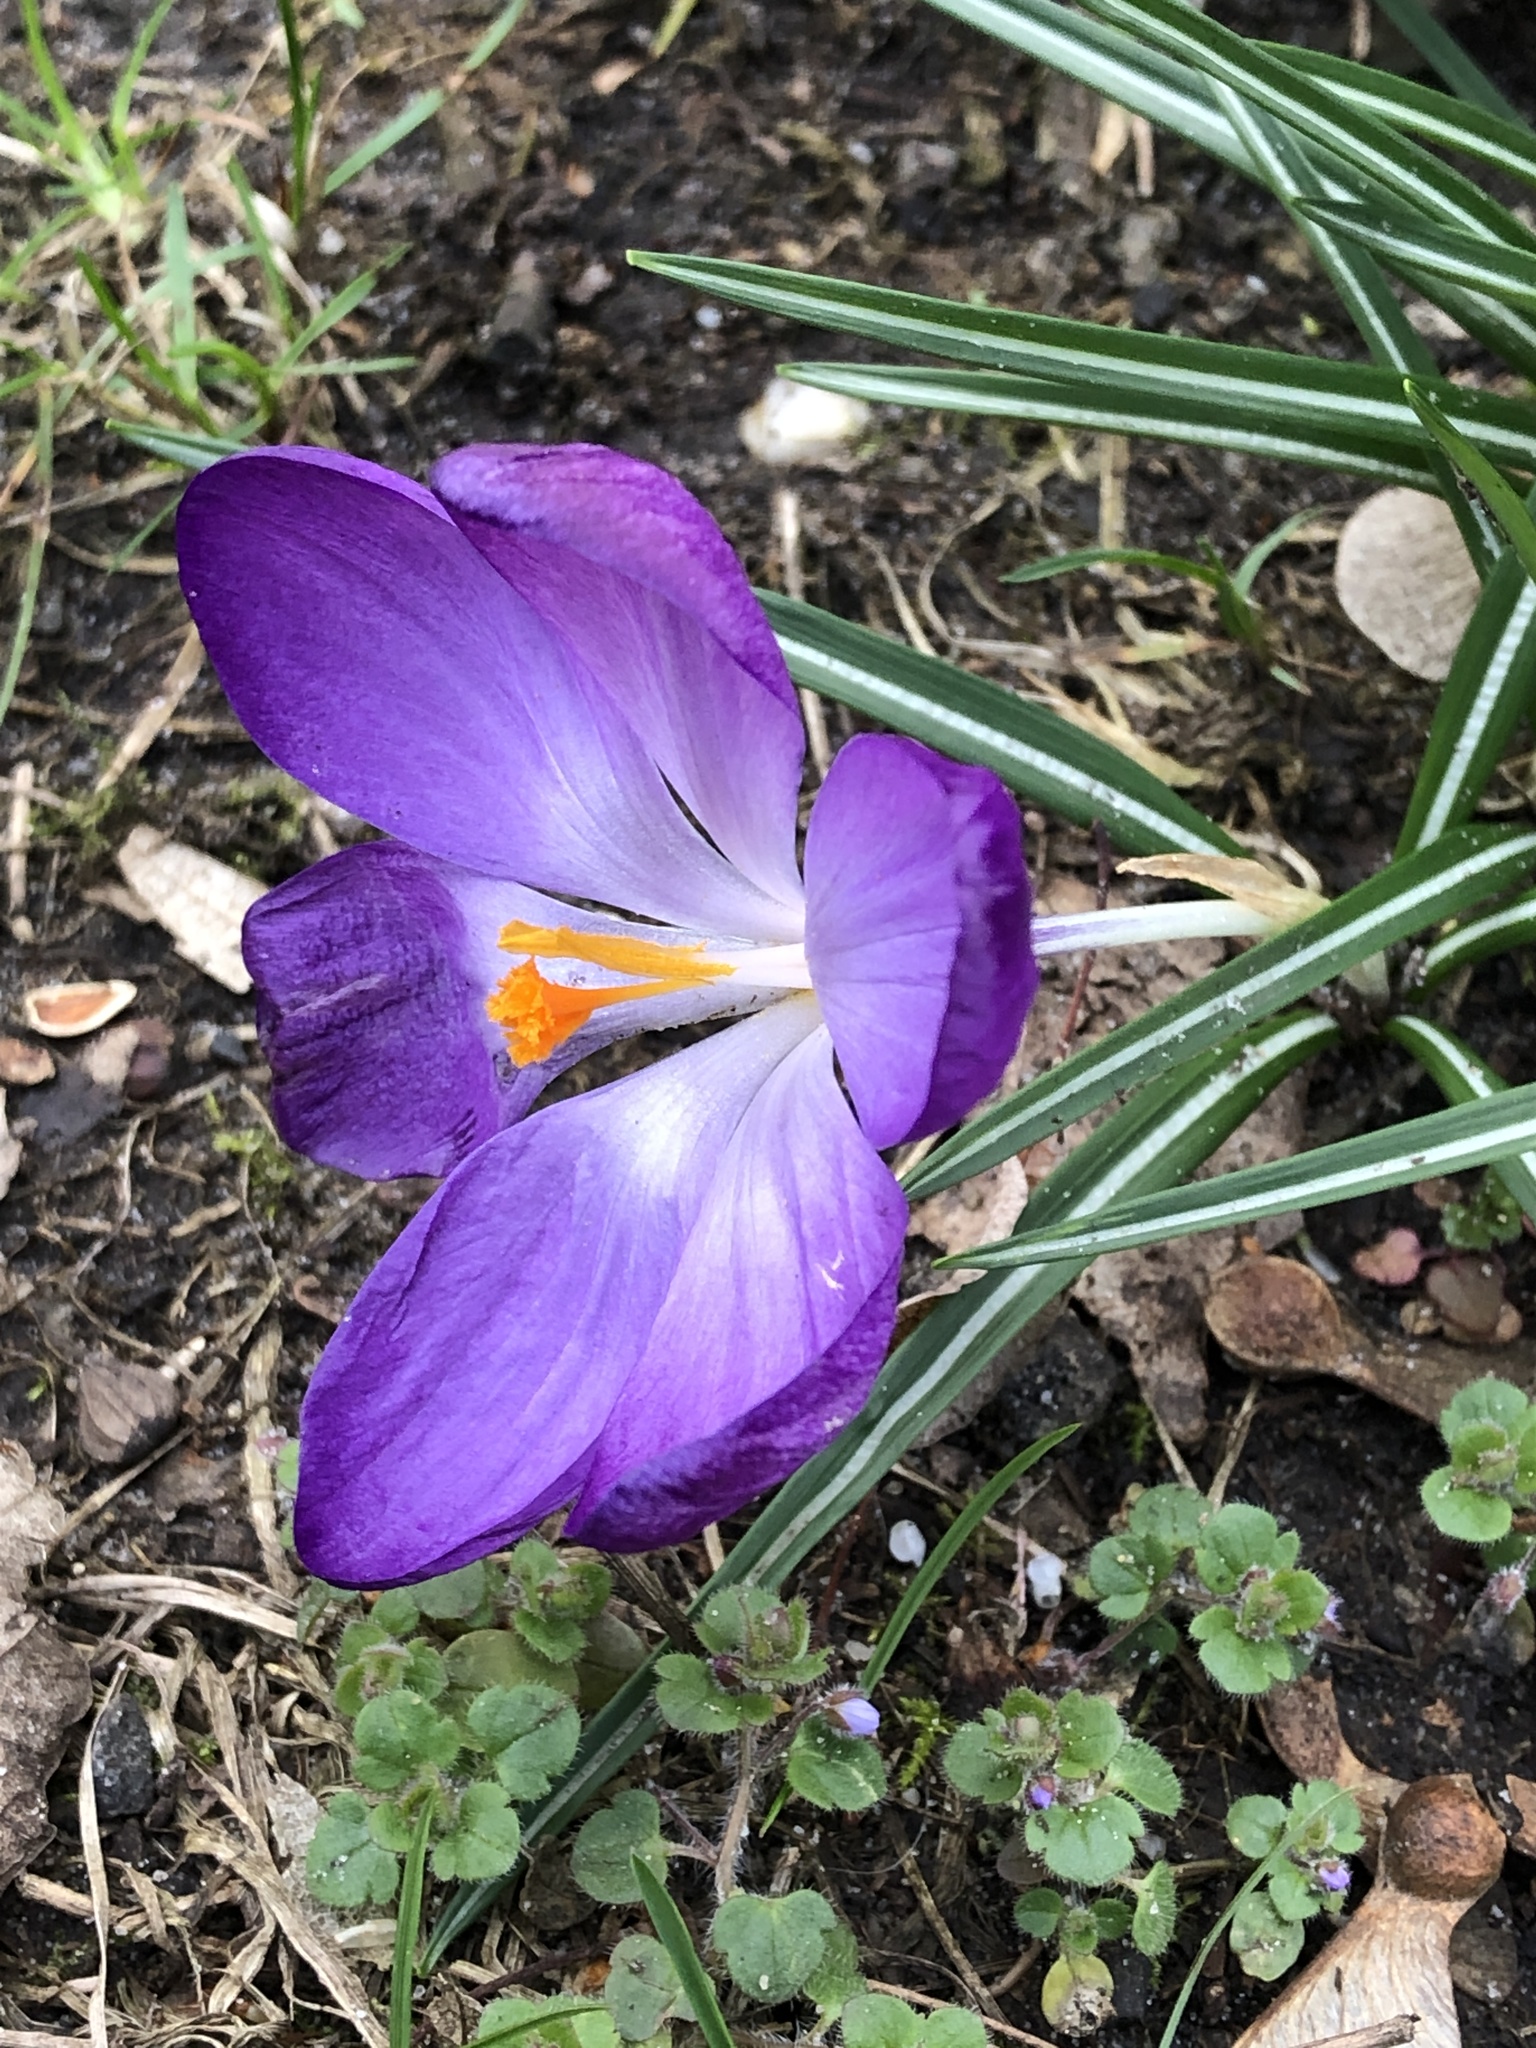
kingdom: Plantae
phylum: Tracheophyta
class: Liliopsida
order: Asparagales
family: Iridaceae
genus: Crocus
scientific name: Crocus tommasinianus
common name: Early crocus
